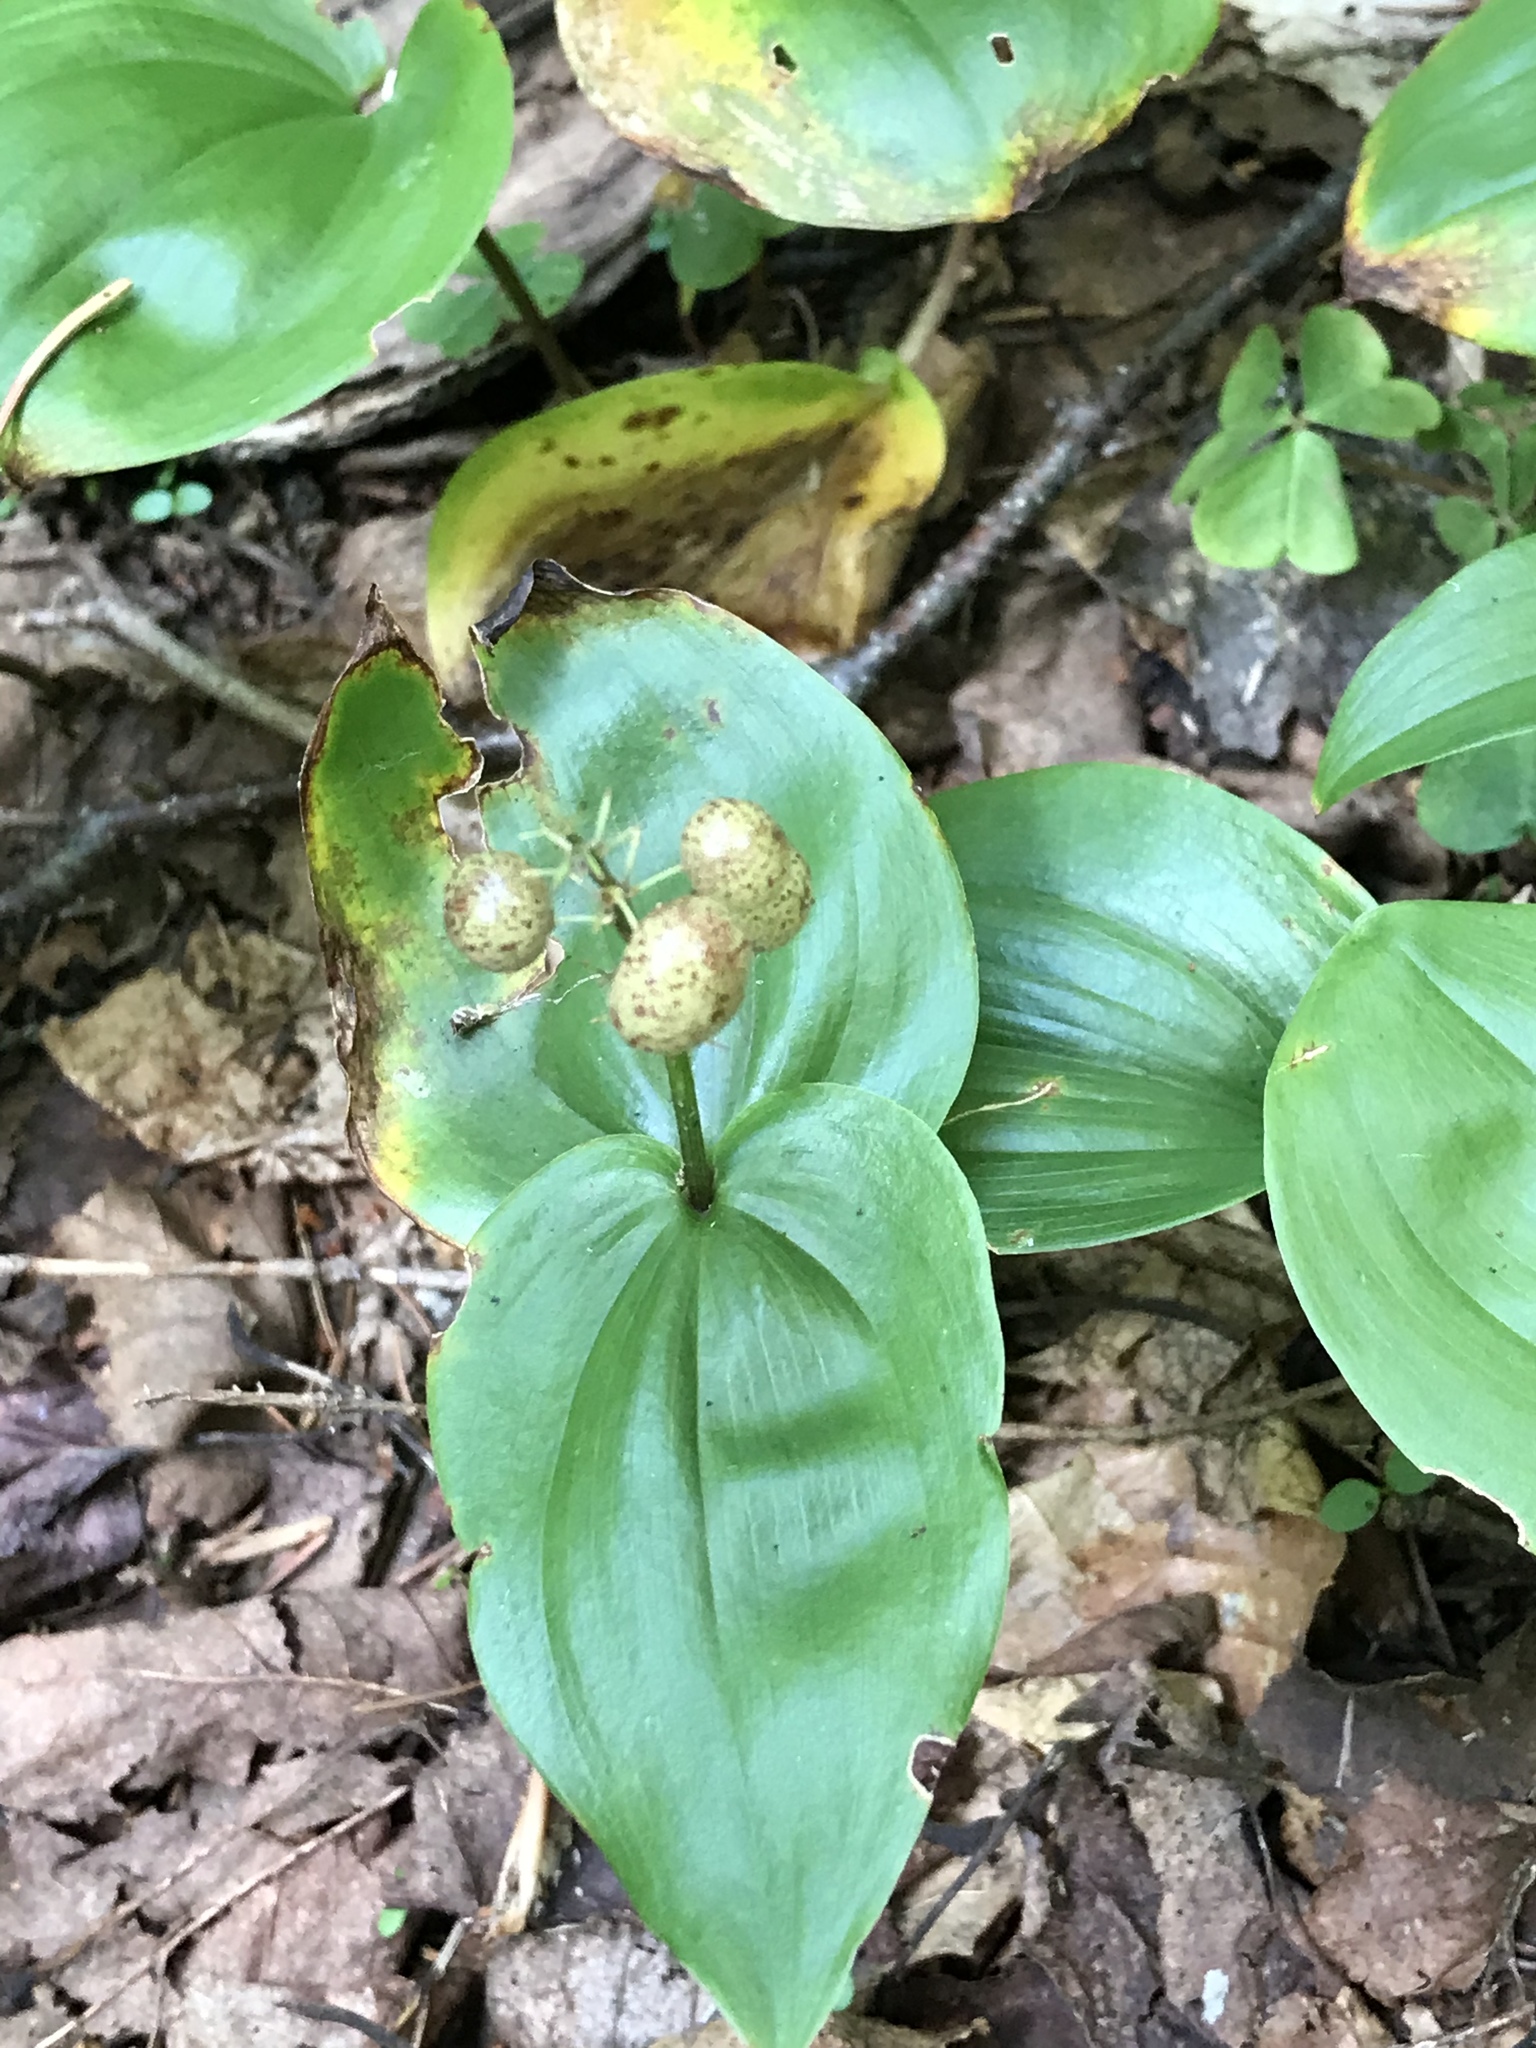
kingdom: Plantae
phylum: Tracheophyta
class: Liliopsida
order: Asparagales
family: Asparagaceae
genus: Maianthemum
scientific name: Maianthemum canadense
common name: False lily-of-the-valley
